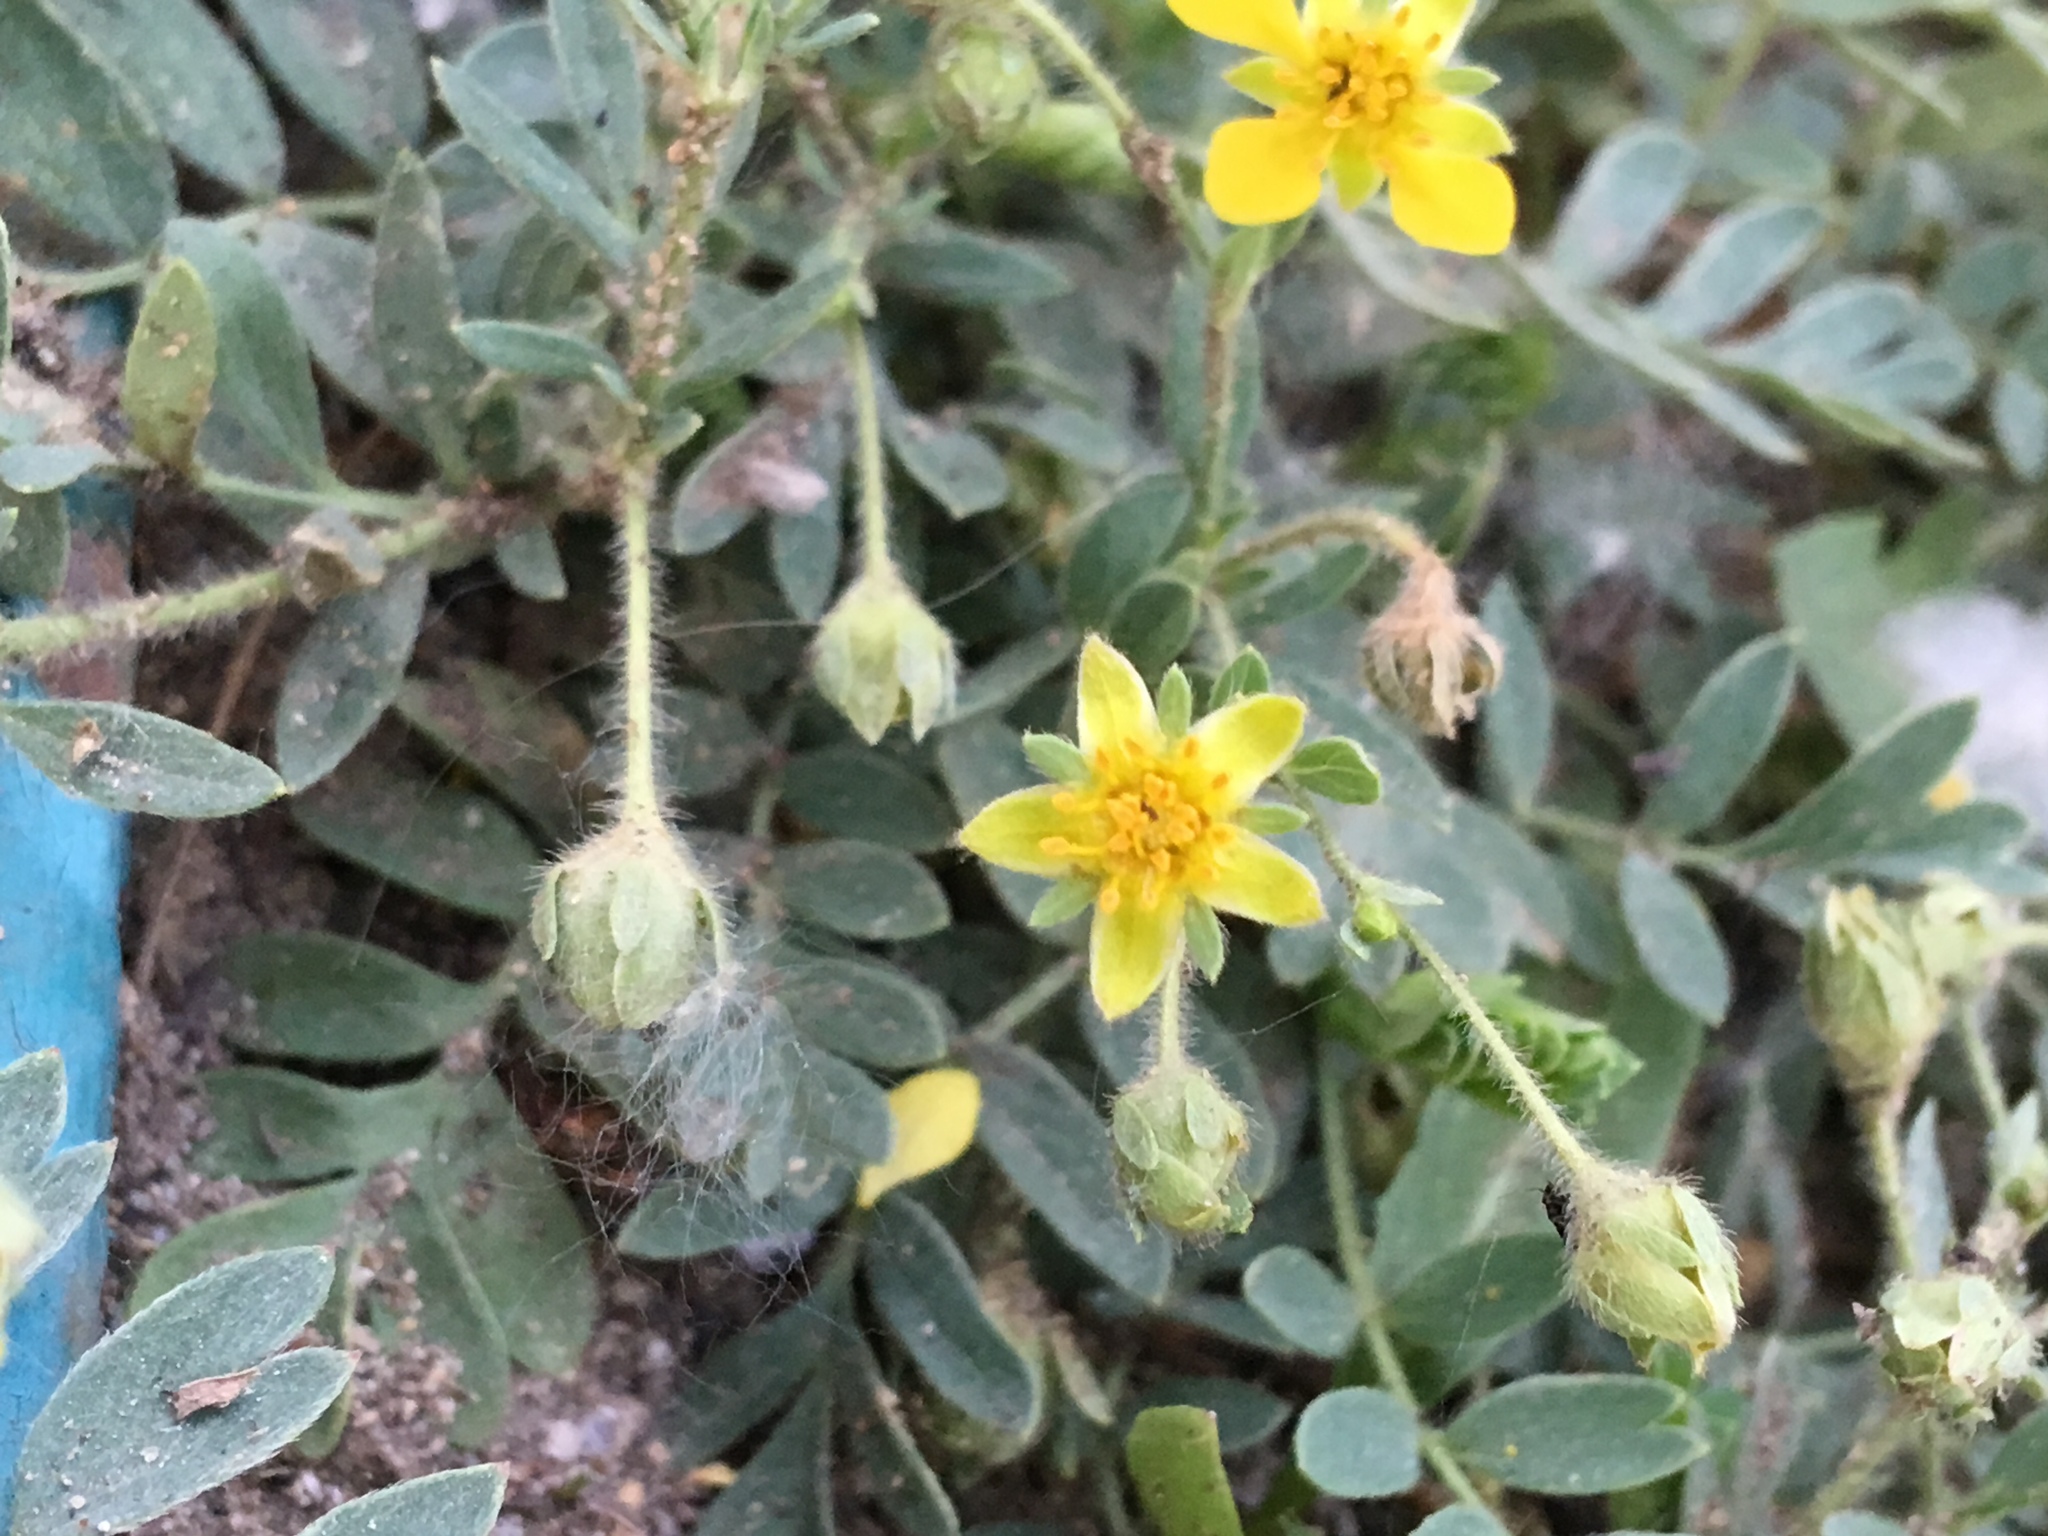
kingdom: Plantae
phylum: Tracheophyta
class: Magnoliopsida
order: Zygophyllales
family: Zygophyllaceae
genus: Tribulus
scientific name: Tribulus terrestris
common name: Puncturevine
